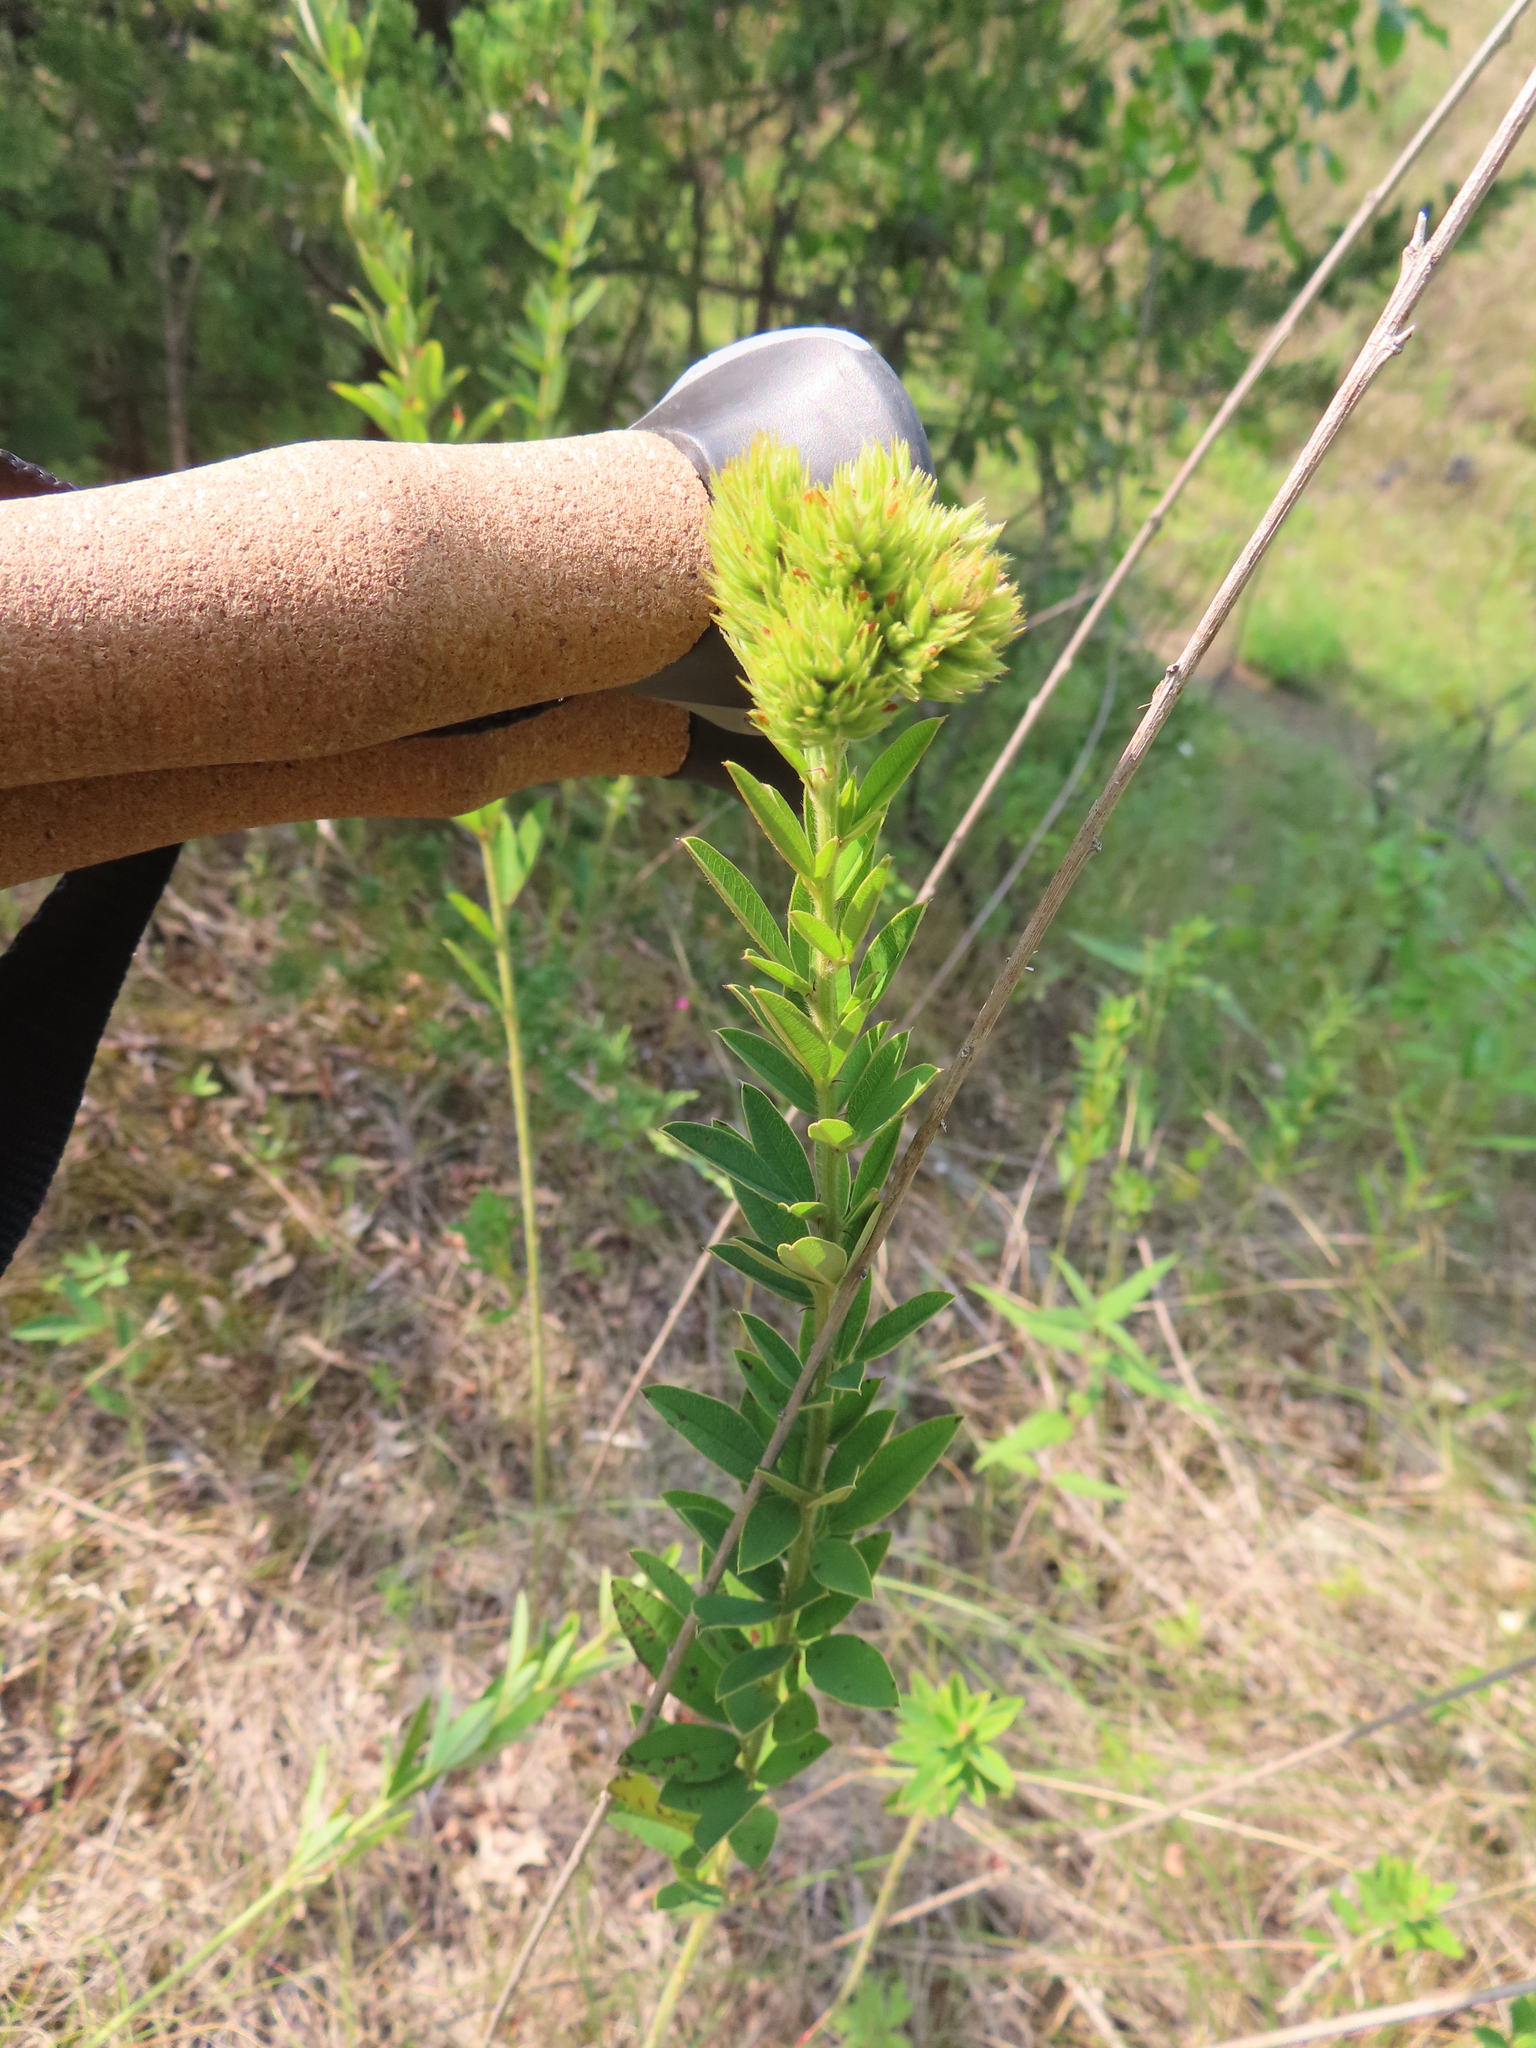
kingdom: Plantae
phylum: Tracheophyta
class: Magnoliopsida
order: Fabales
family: Fabaceae
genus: Lespedeza
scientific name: Lespedeza capitata
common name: Dusty clover
